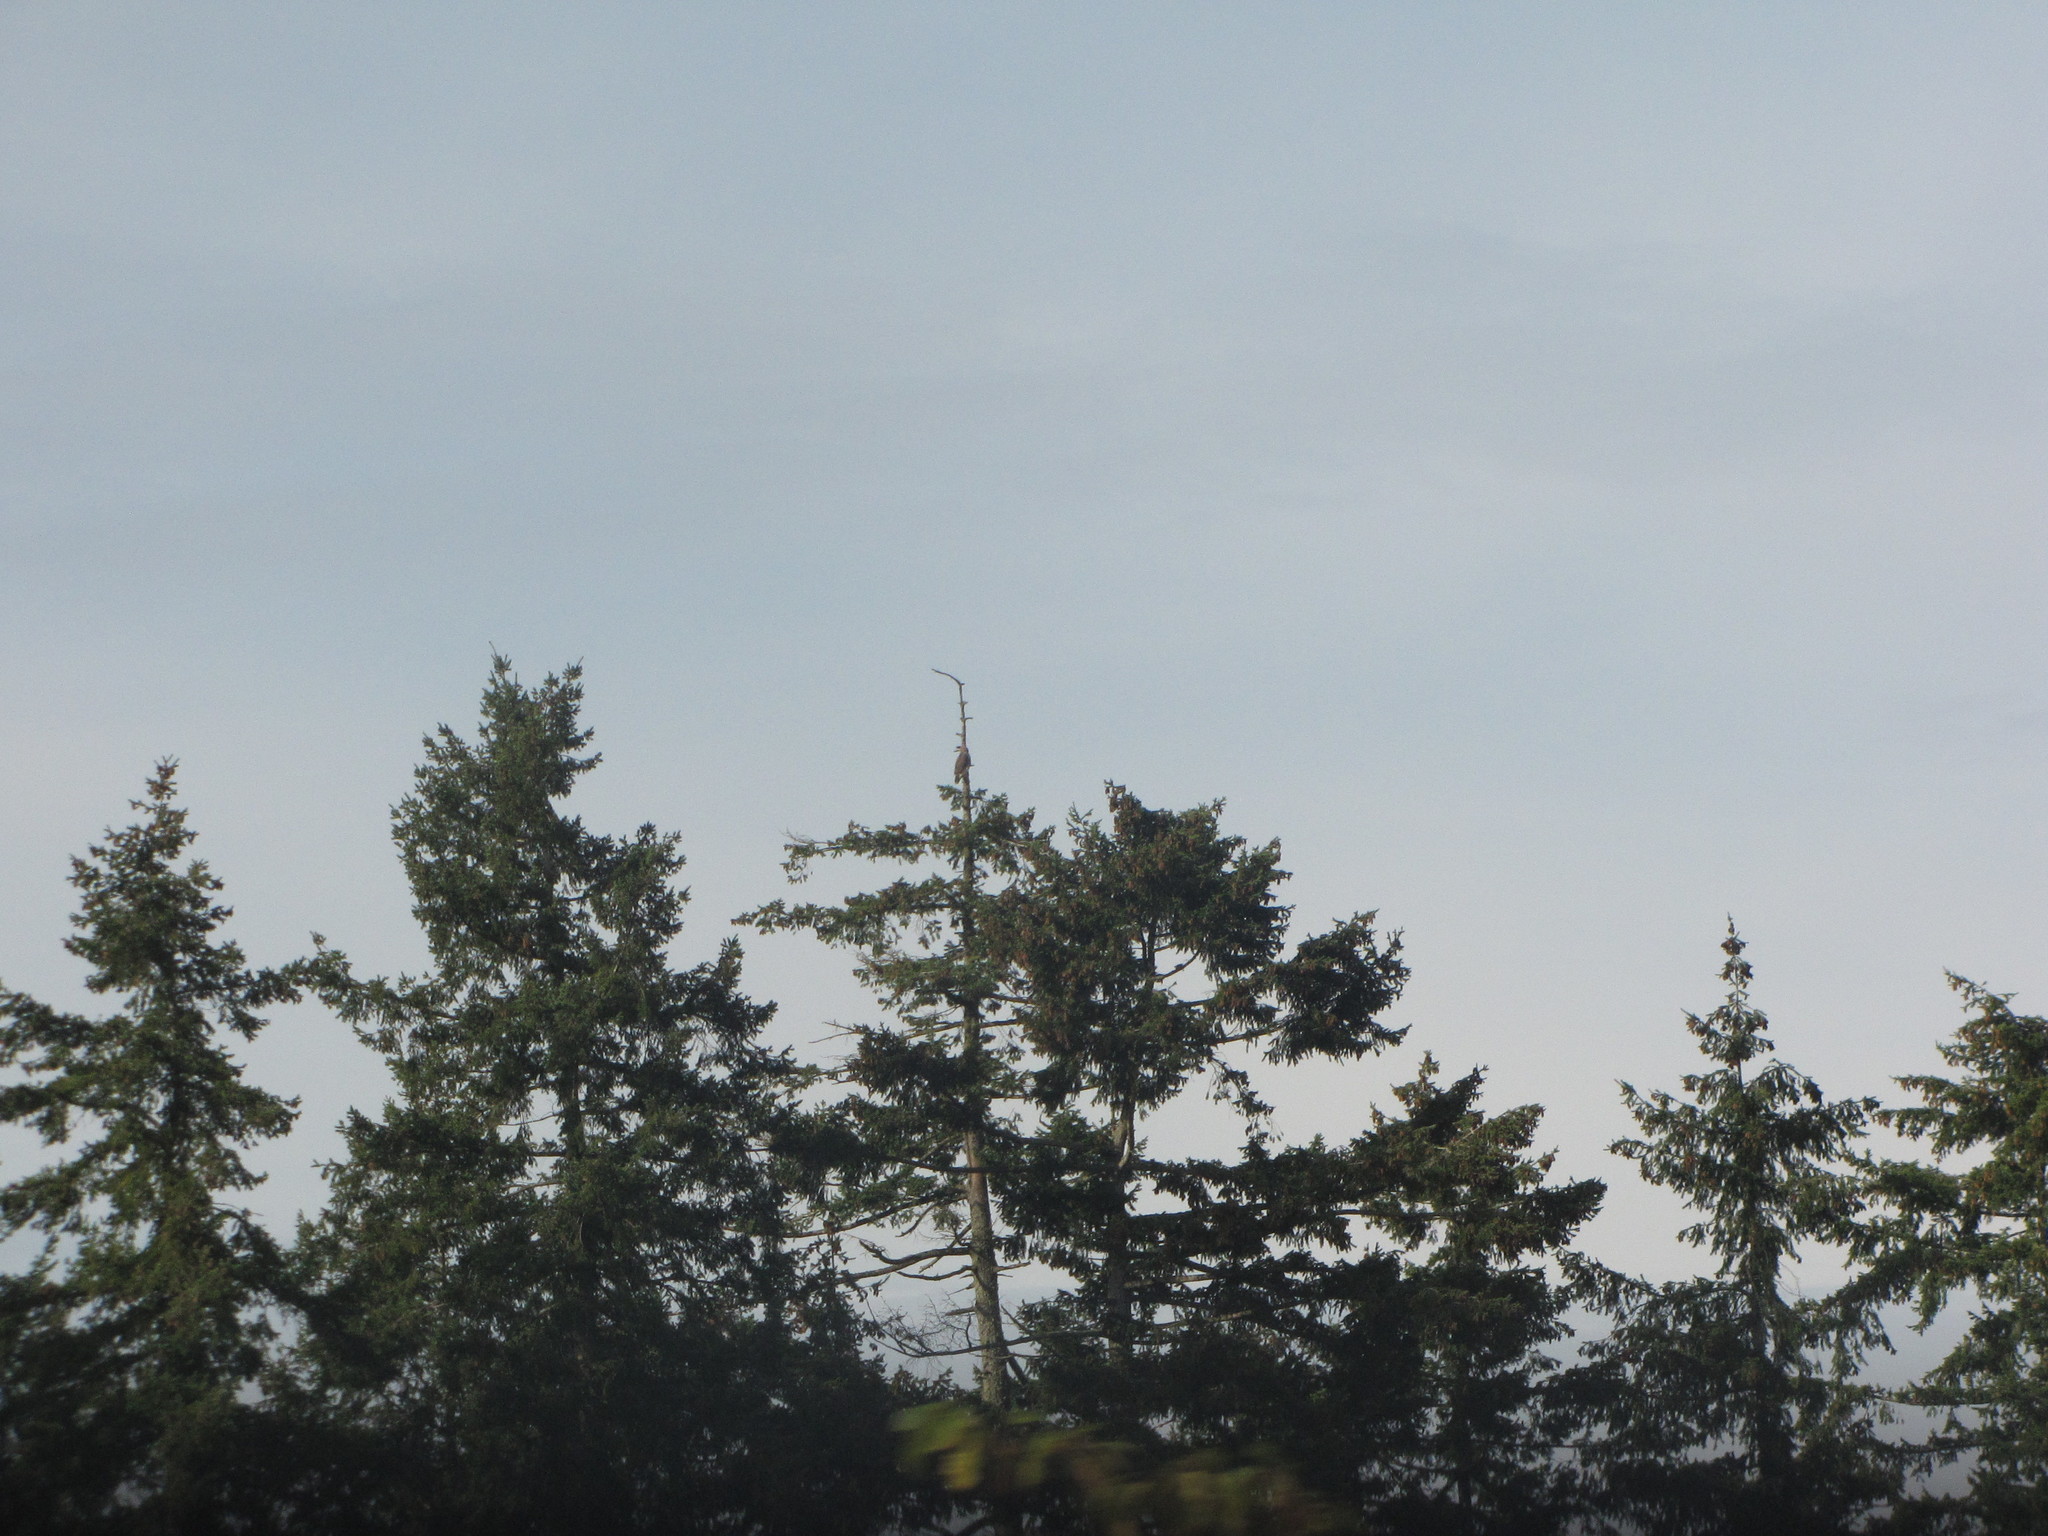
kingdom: Animalia
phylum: Chordata
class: Aves
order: Accipitriformes
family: Accipitridae
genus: Buteo
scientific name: Buteo jamaicensis
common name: Red-tailed hawk
